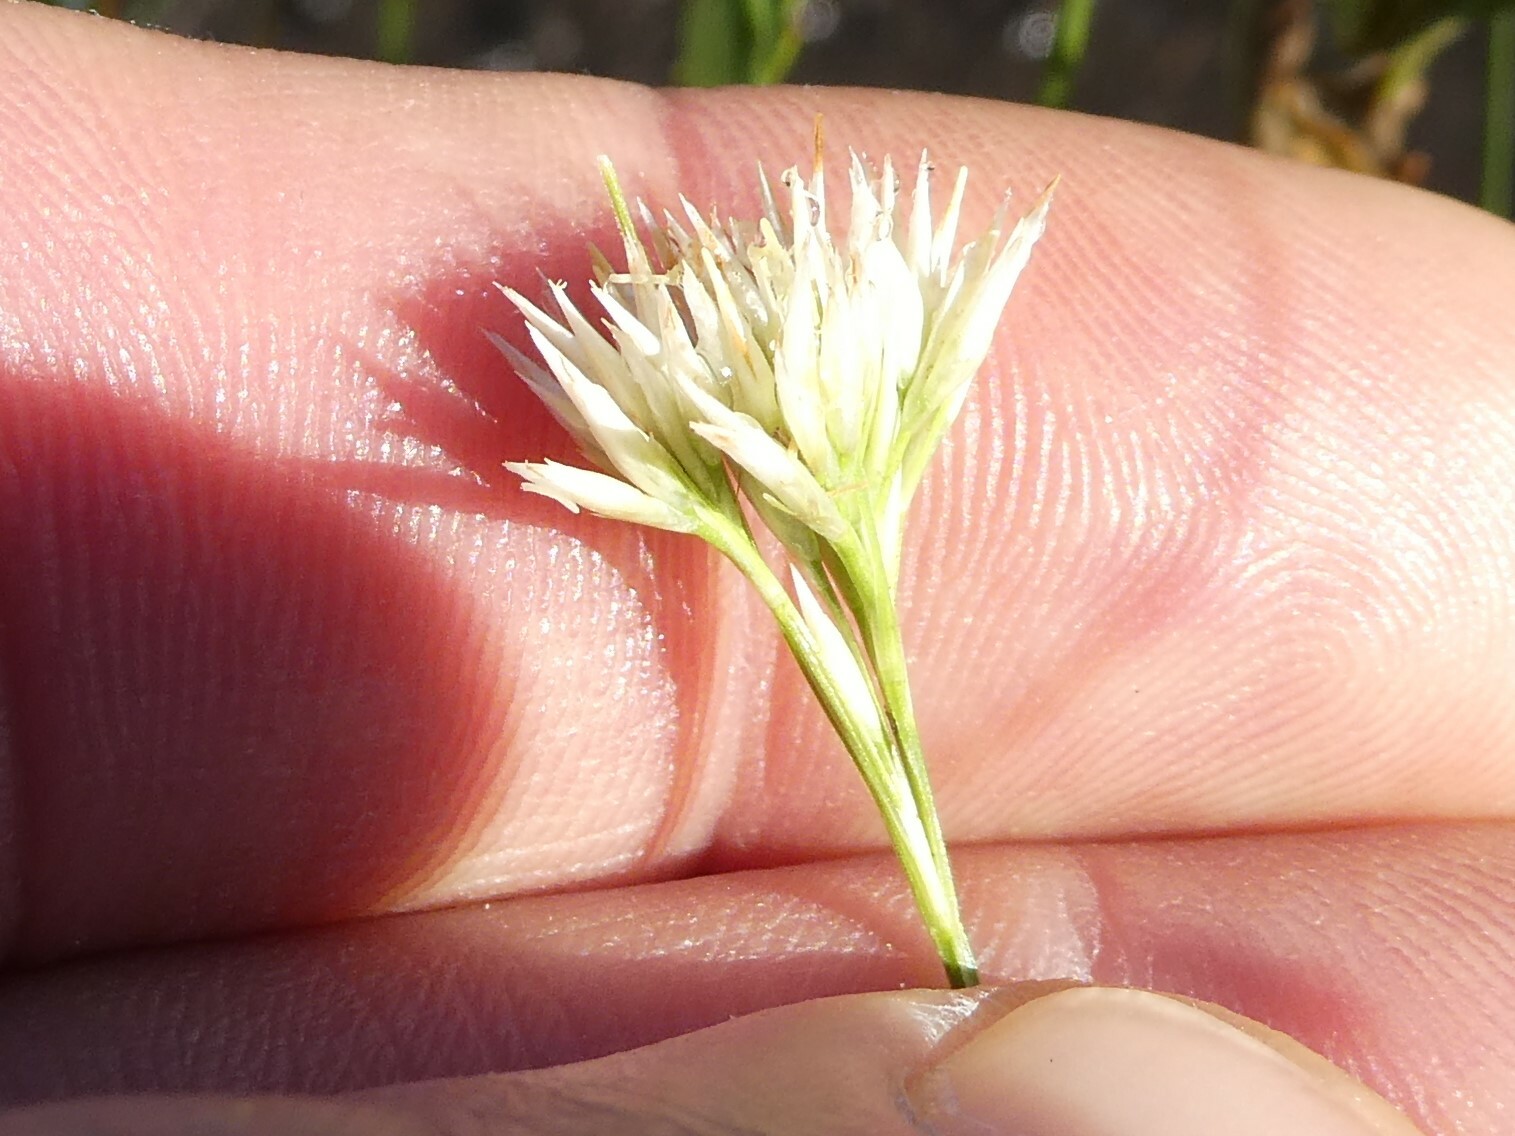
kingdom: Plantae
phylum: Tracheophyta
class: Liliopsida
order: Poales
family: Cyperaceae
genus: Rhynchospora
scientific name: Rhynchospora alba
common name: White beak-sedge
